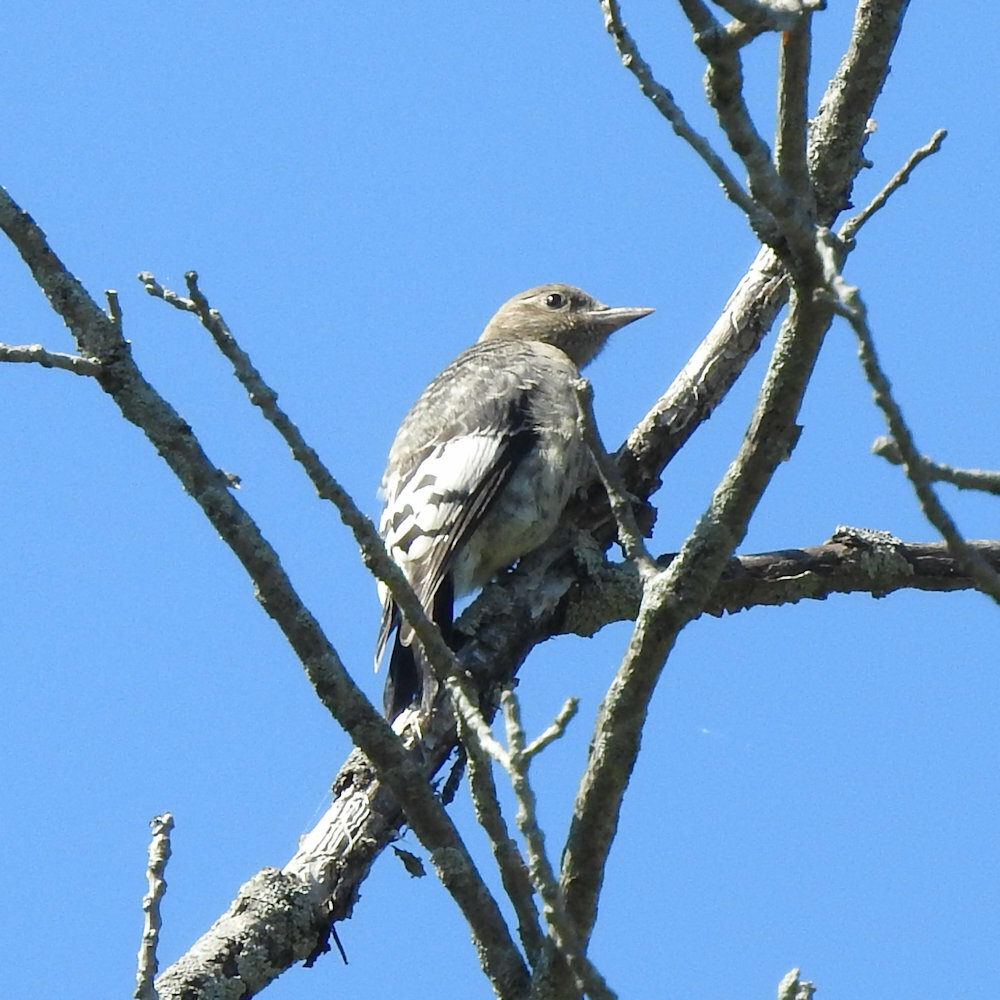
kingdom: Animalia
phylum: Chordata
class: Aves
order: Piciformes
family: Picidae
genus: Melanerpes
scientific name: Melanerpes erythrocephalus
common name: Red-headed woodpecker
